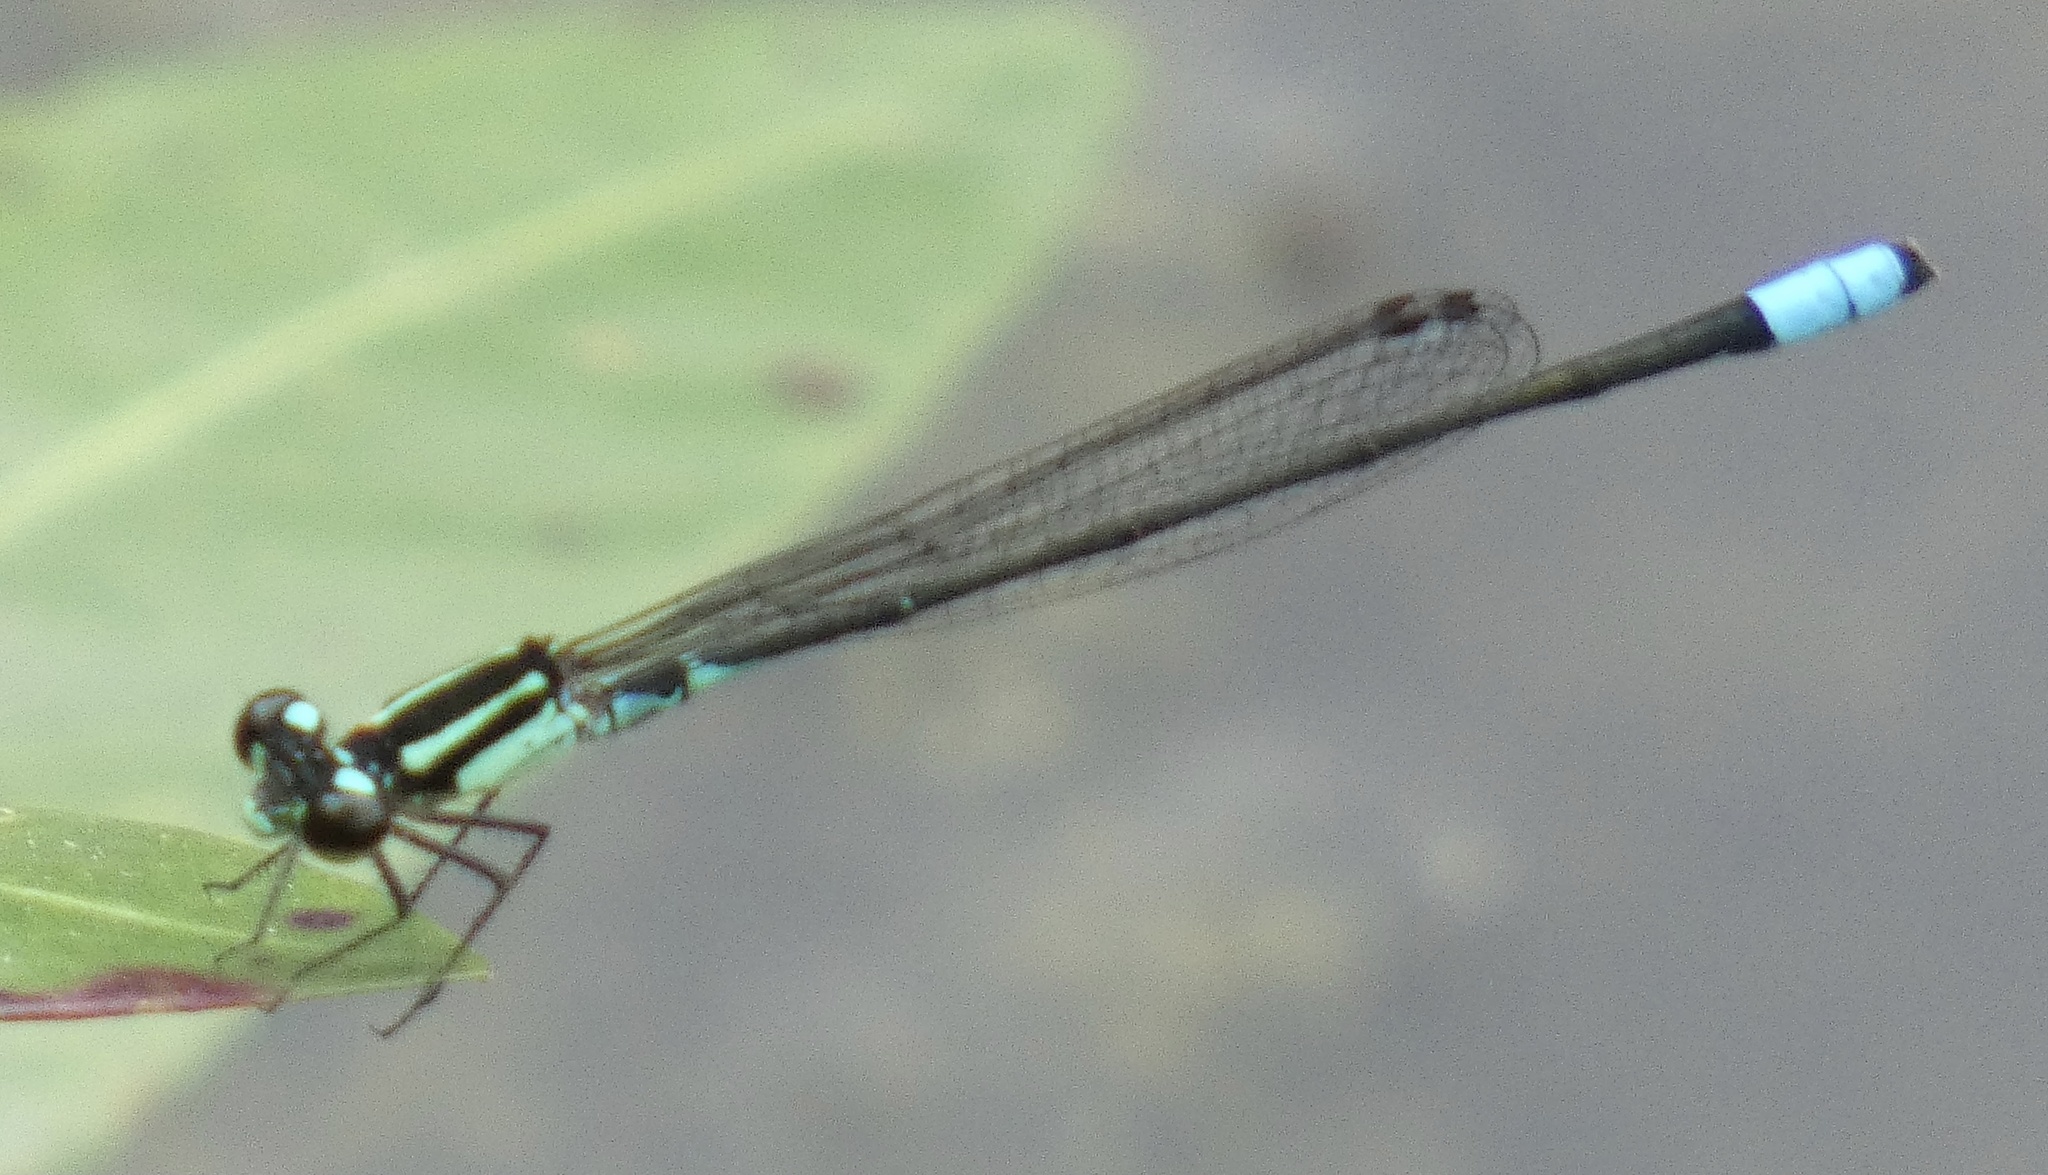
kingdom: Animalia
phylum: Arthropoda
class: Insecta
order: Odonata
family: Coenagrionidae
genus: Acanthagrion
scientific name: Acanthagrion lancea
